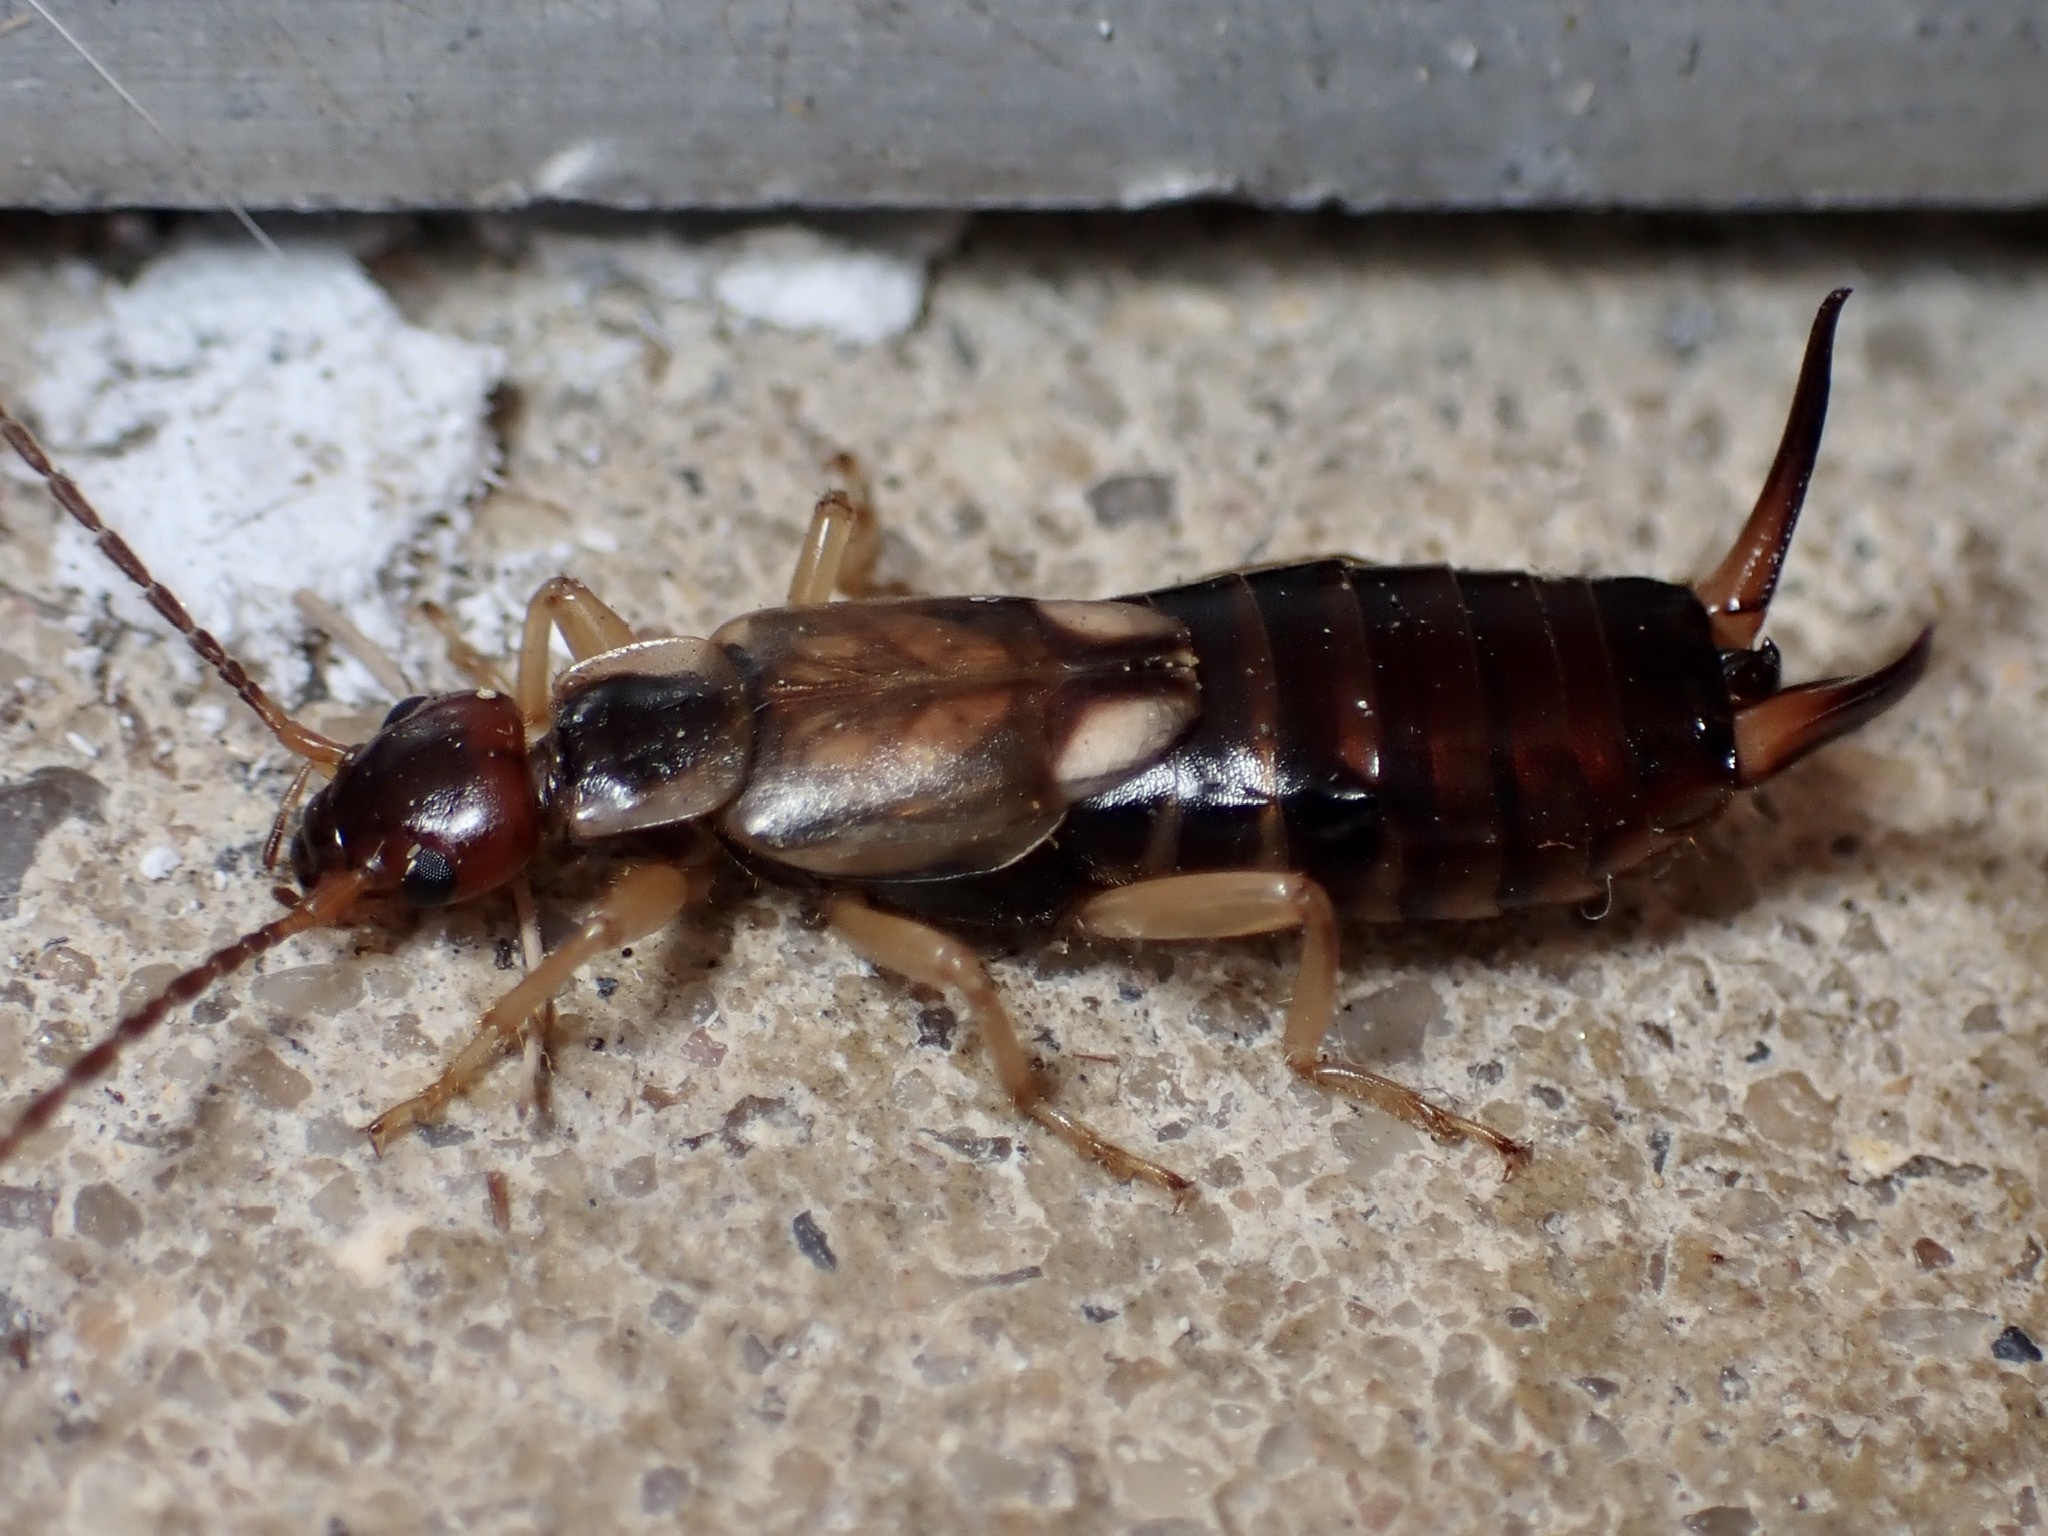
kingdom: Animalia
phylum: Arthropoda
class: Insecta
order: Dermaptera
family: Forficulidae
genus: Forficula
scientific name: Forficula
